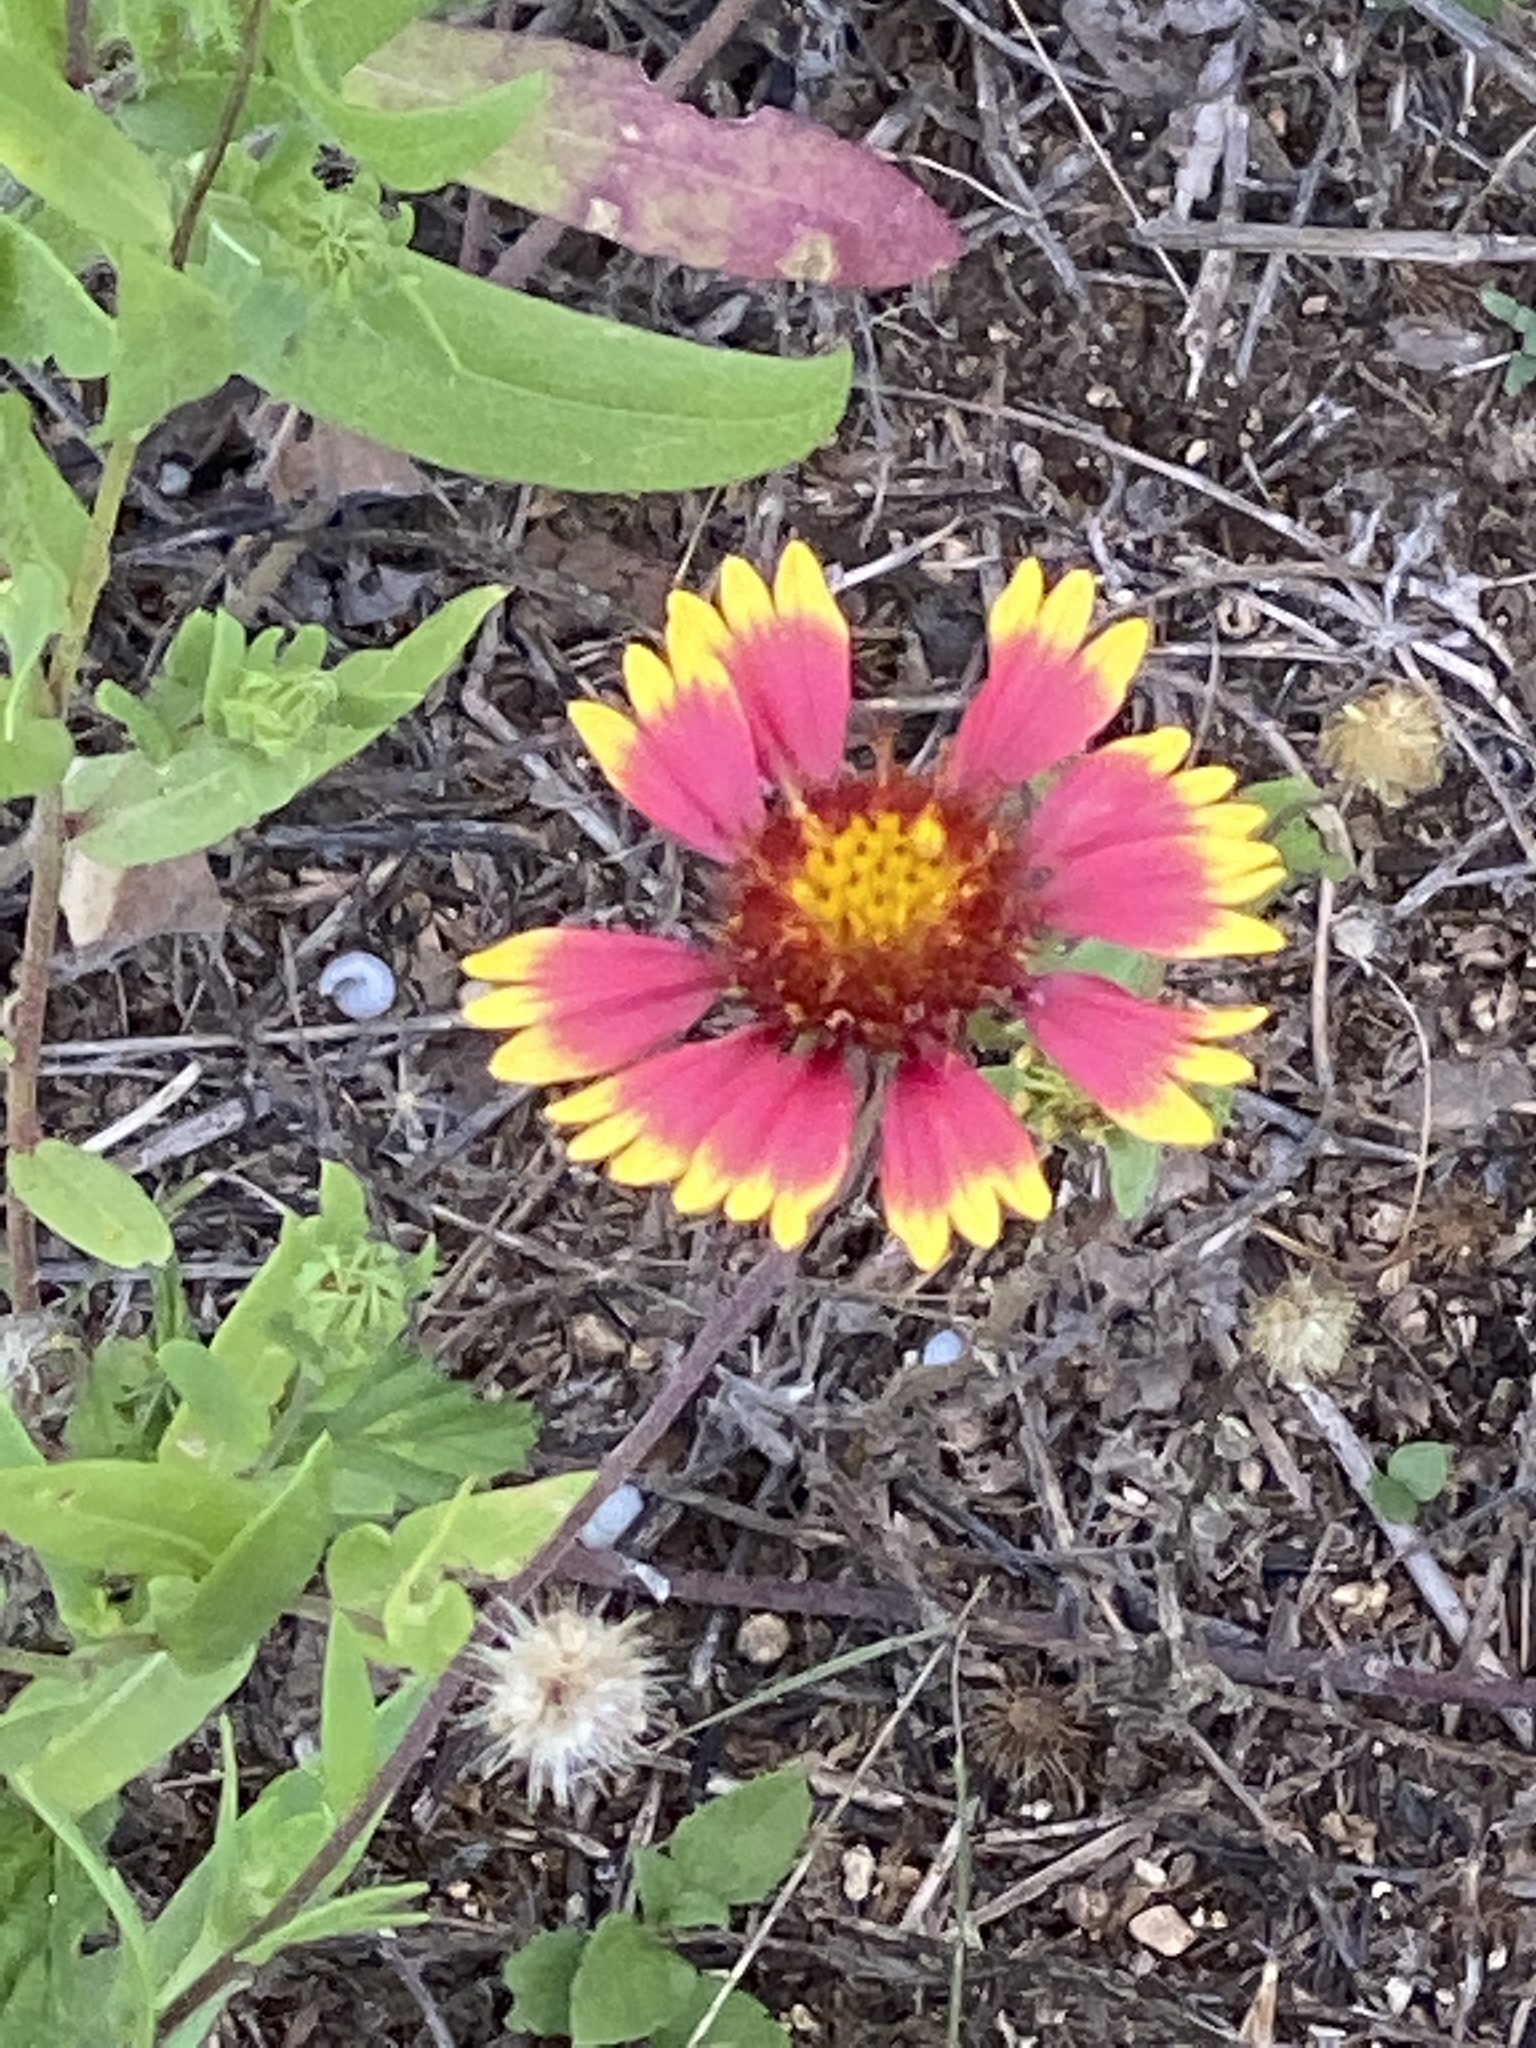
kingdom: Plantae
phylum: Tracheophyta
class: Magnoliopsida
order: Asterales
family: Asteraceae
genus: Gaillardia
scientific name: Gaillardia pulchella
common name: Firewheel
